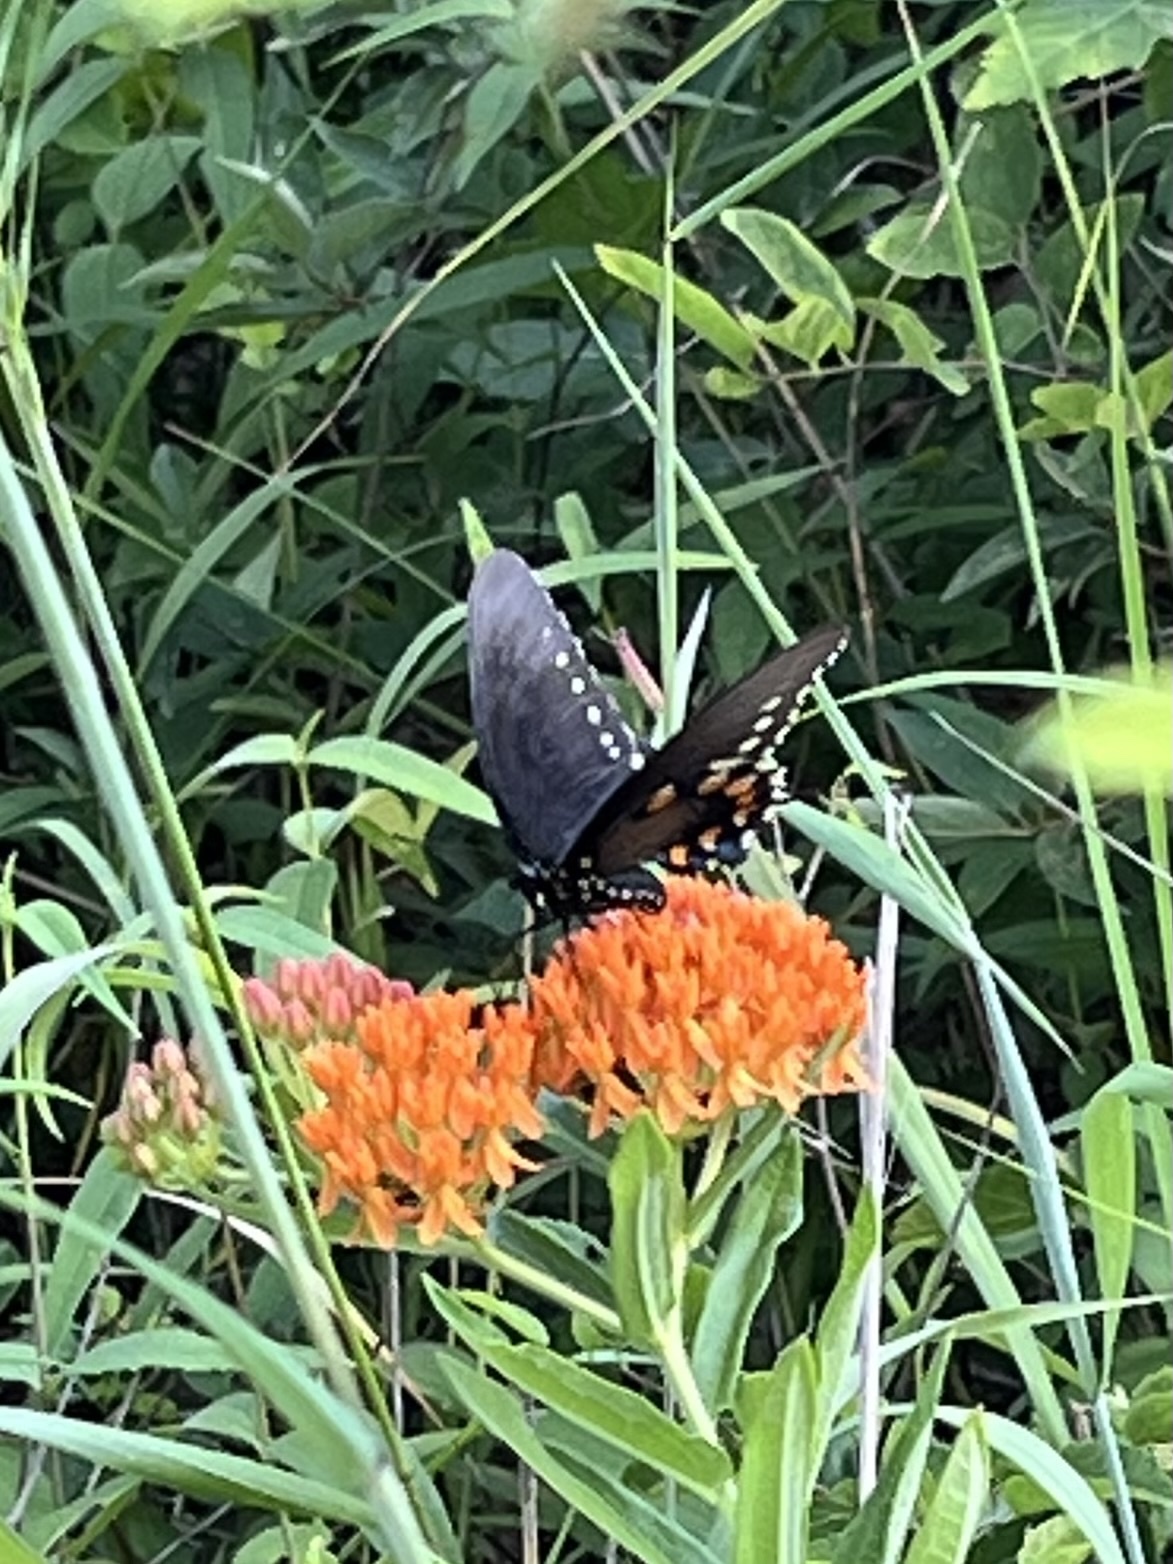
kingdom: Animalia
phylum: Arthropoda
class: Insecta
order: Lepidoptera
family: Papilionidae
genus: Battus
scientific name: Battus philenor
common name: Pipevine swallowtail
